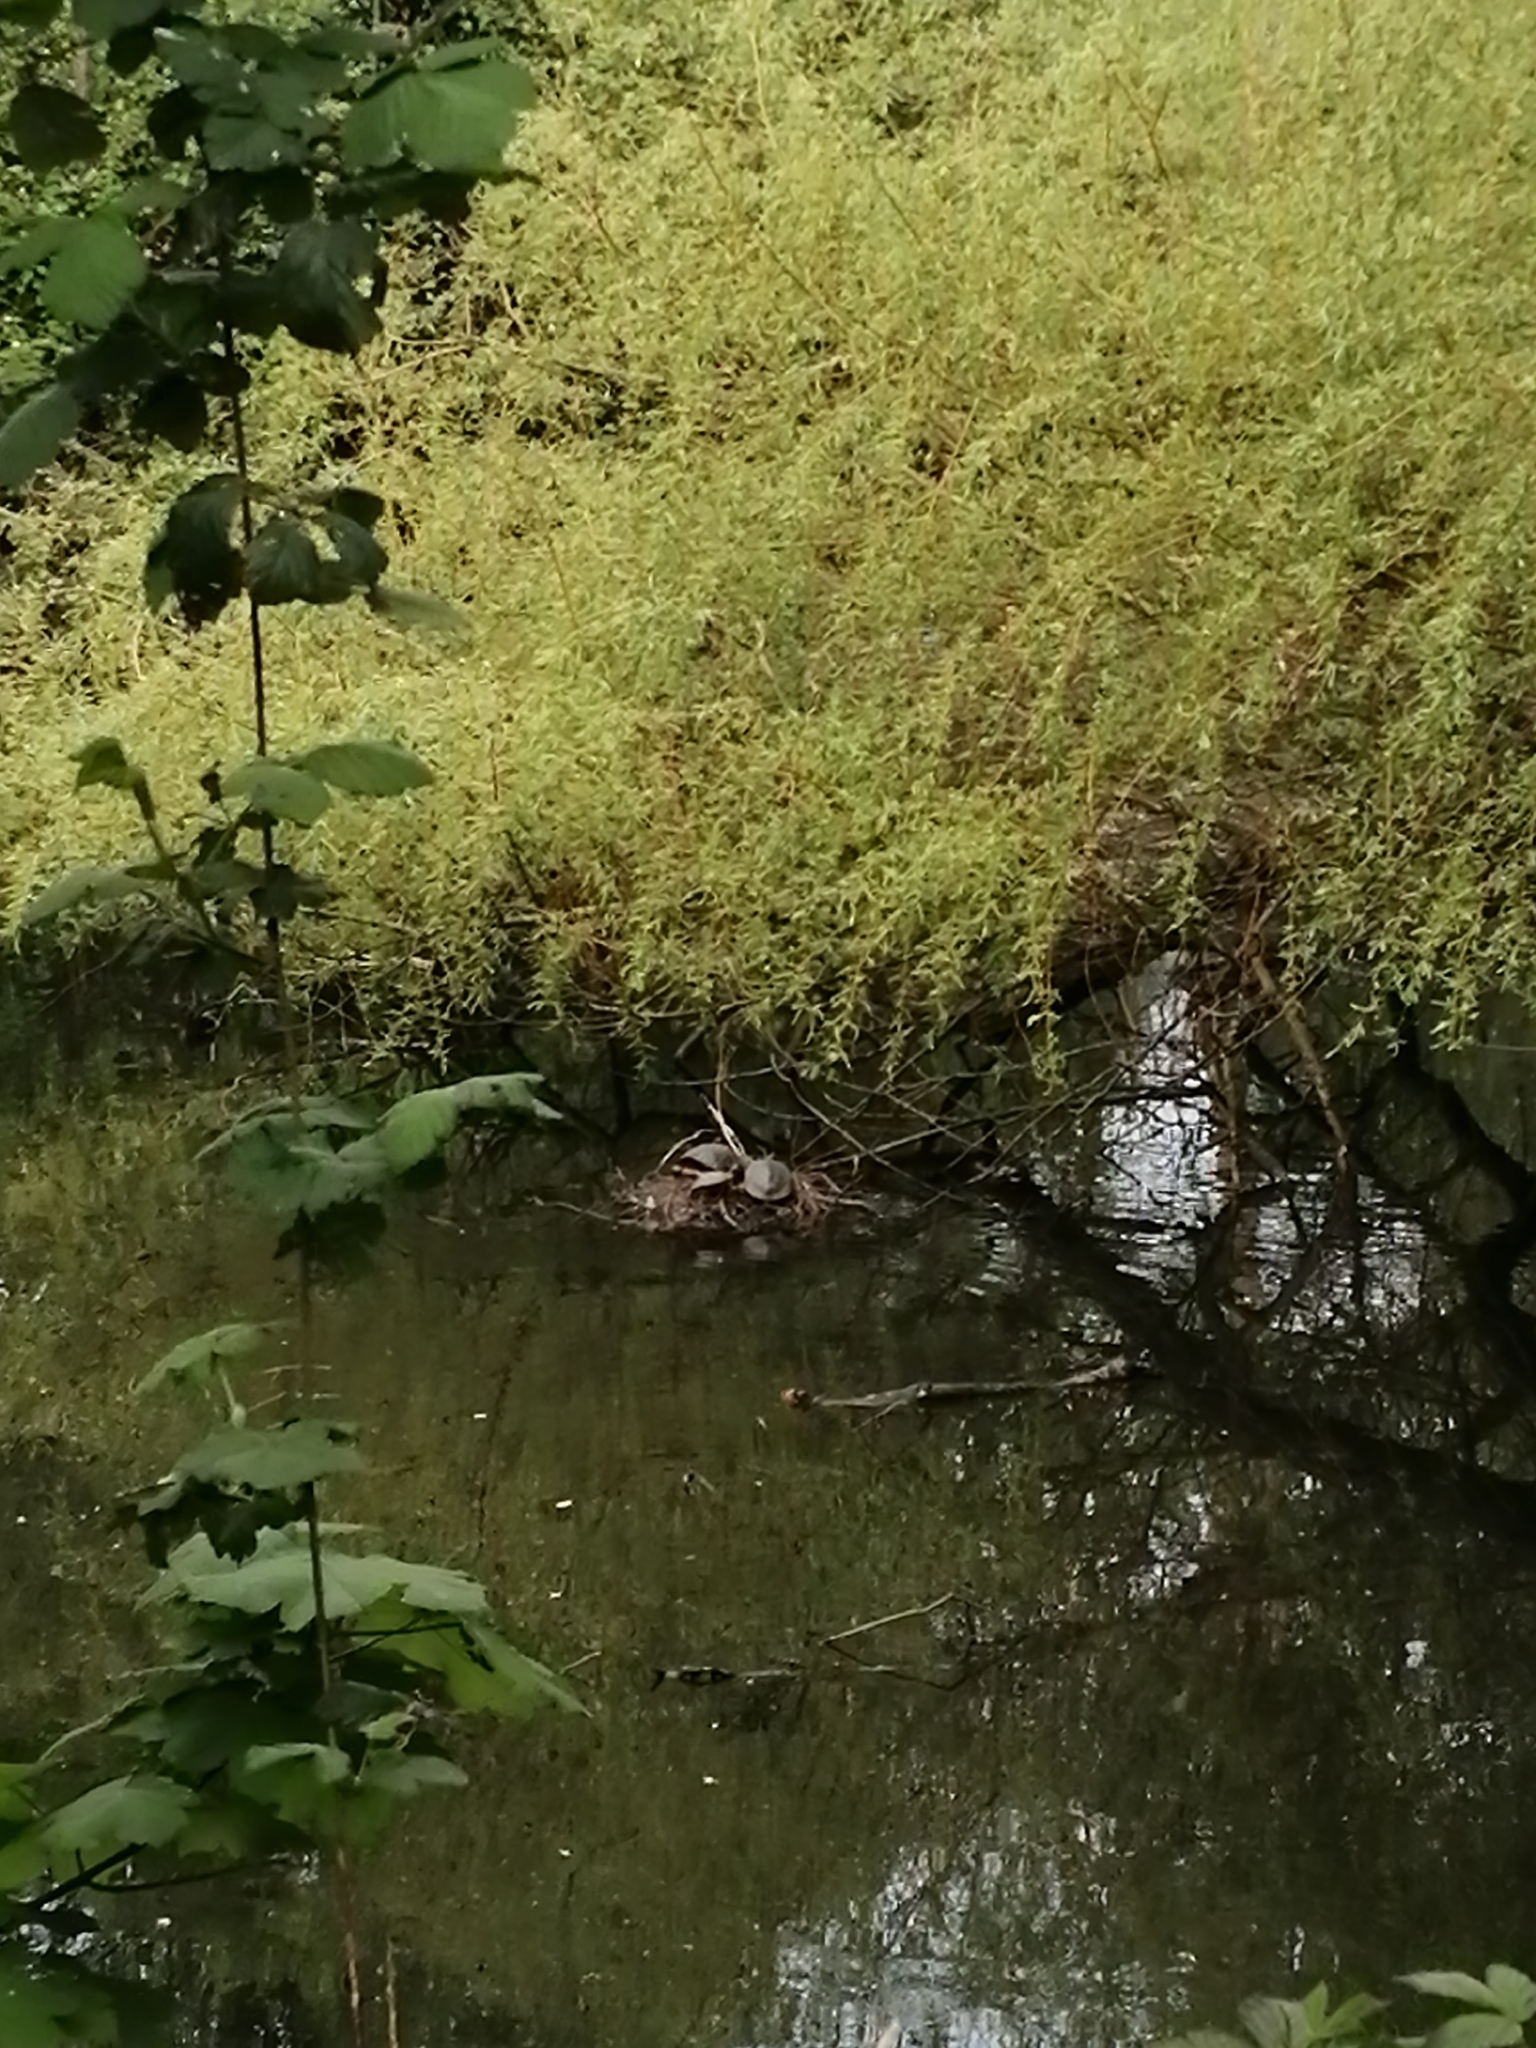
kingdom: Animalia
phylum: Chordata
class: Testudines
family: Emydidae
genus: Trachemys
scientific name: Trachemys scripta
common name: Slider
